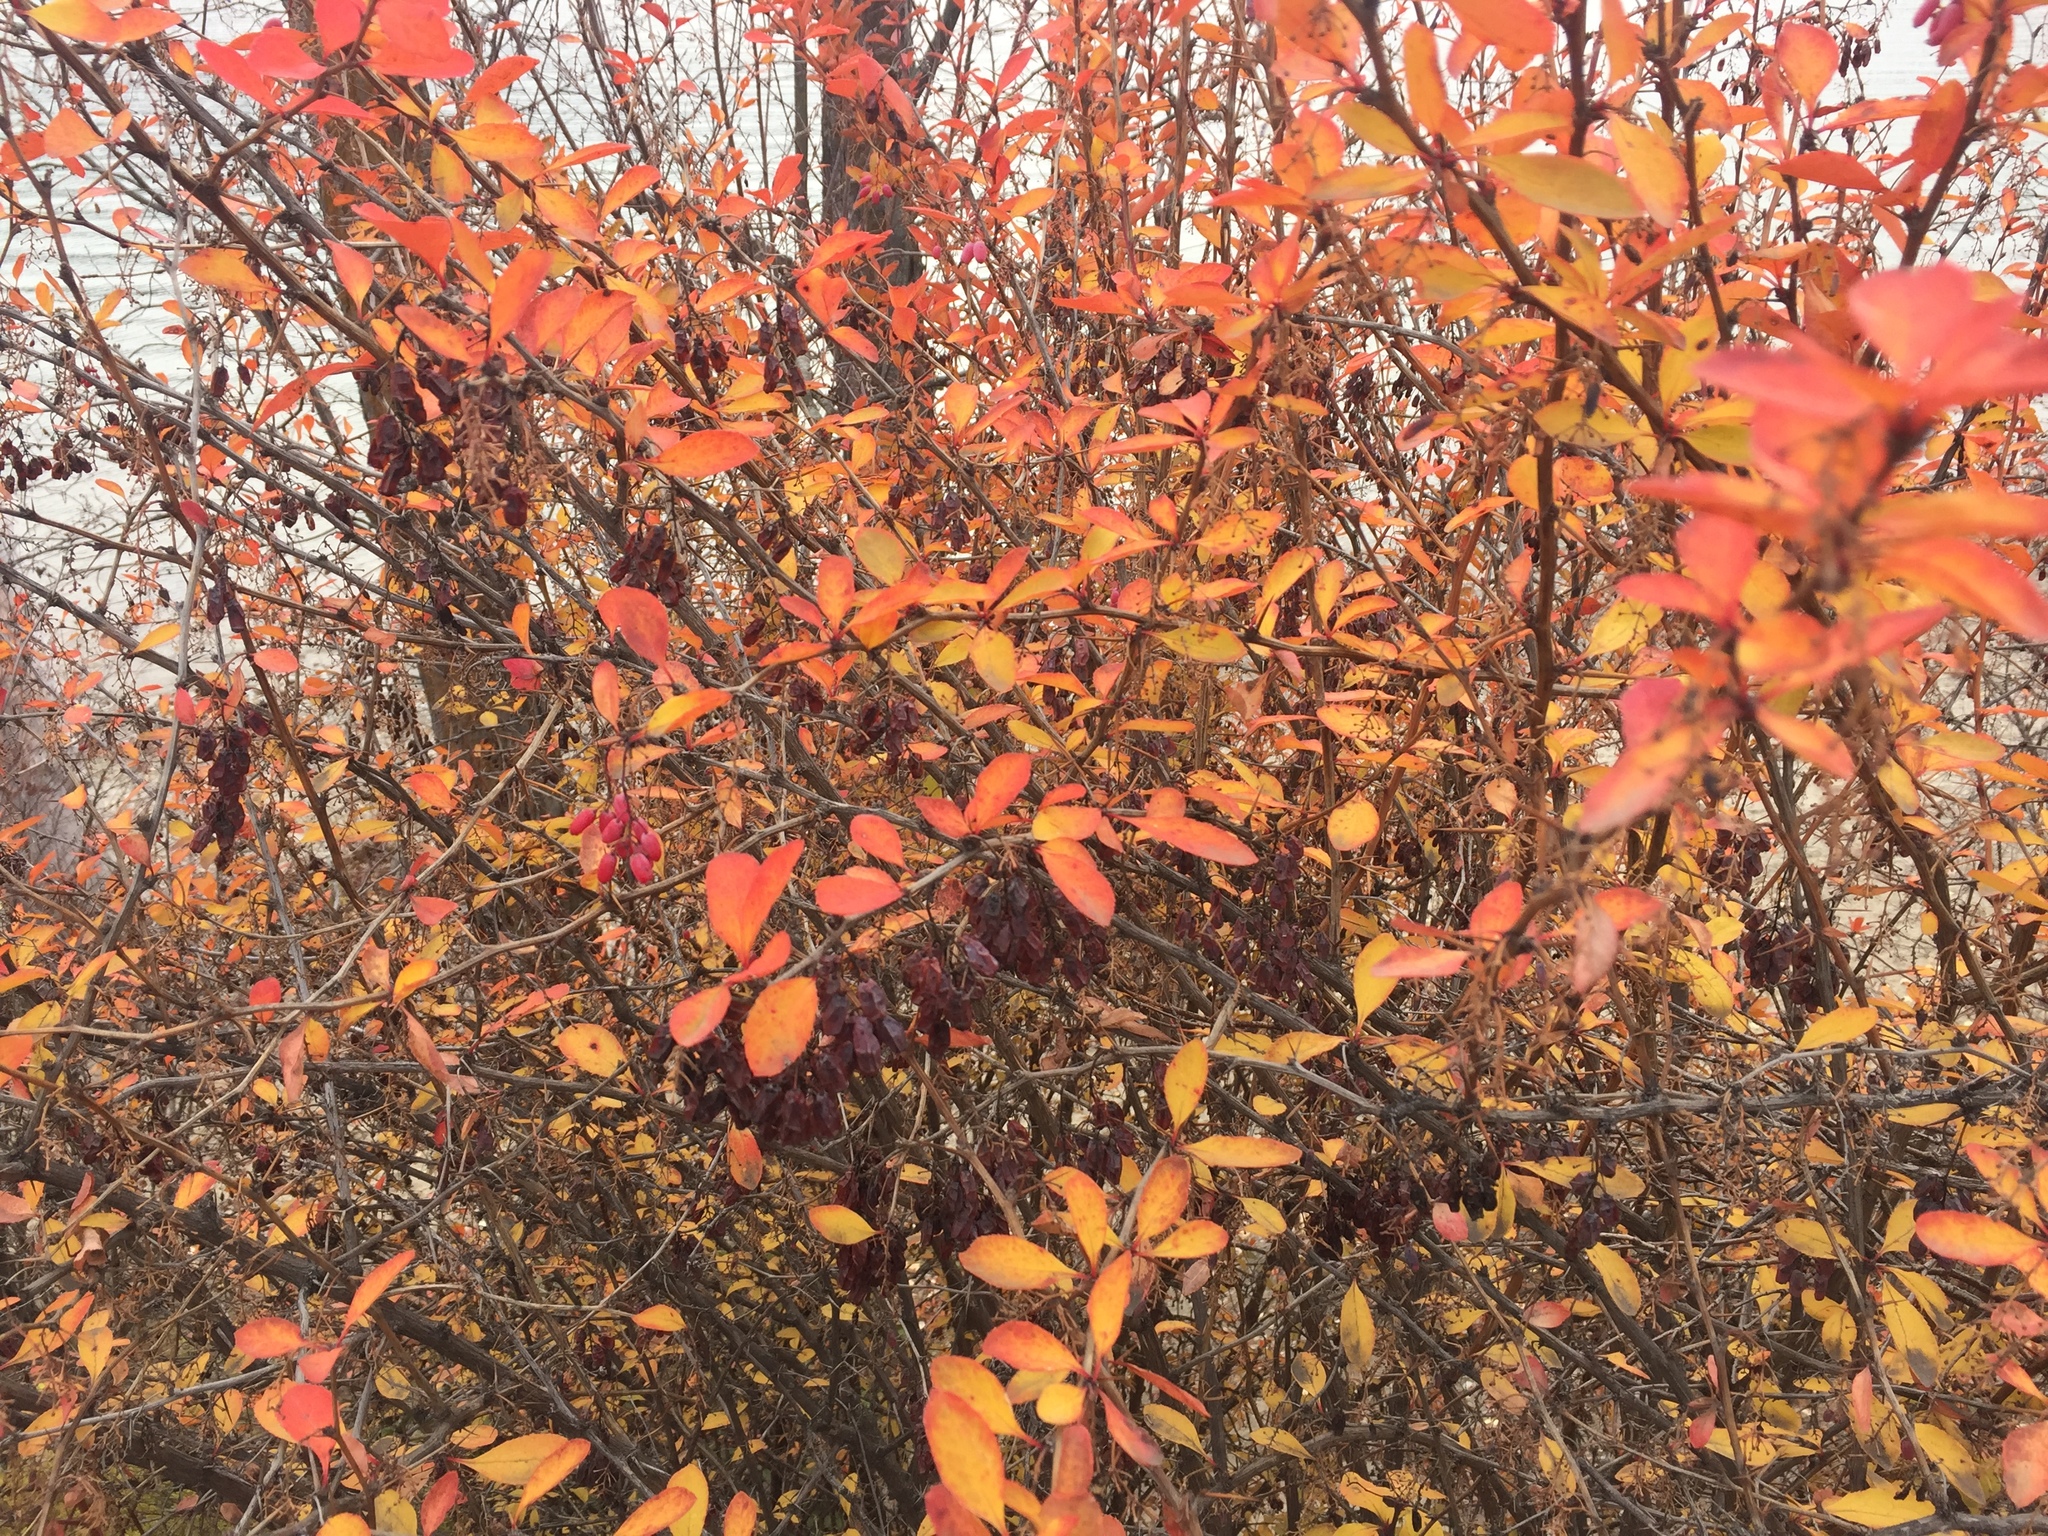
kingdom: Plantae
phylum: Tracheophyta
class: Magnoliopsida
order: Ranunculales
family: Berberidaceae
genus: Berberis
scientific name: Berberis vulgaris
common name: Barberry
